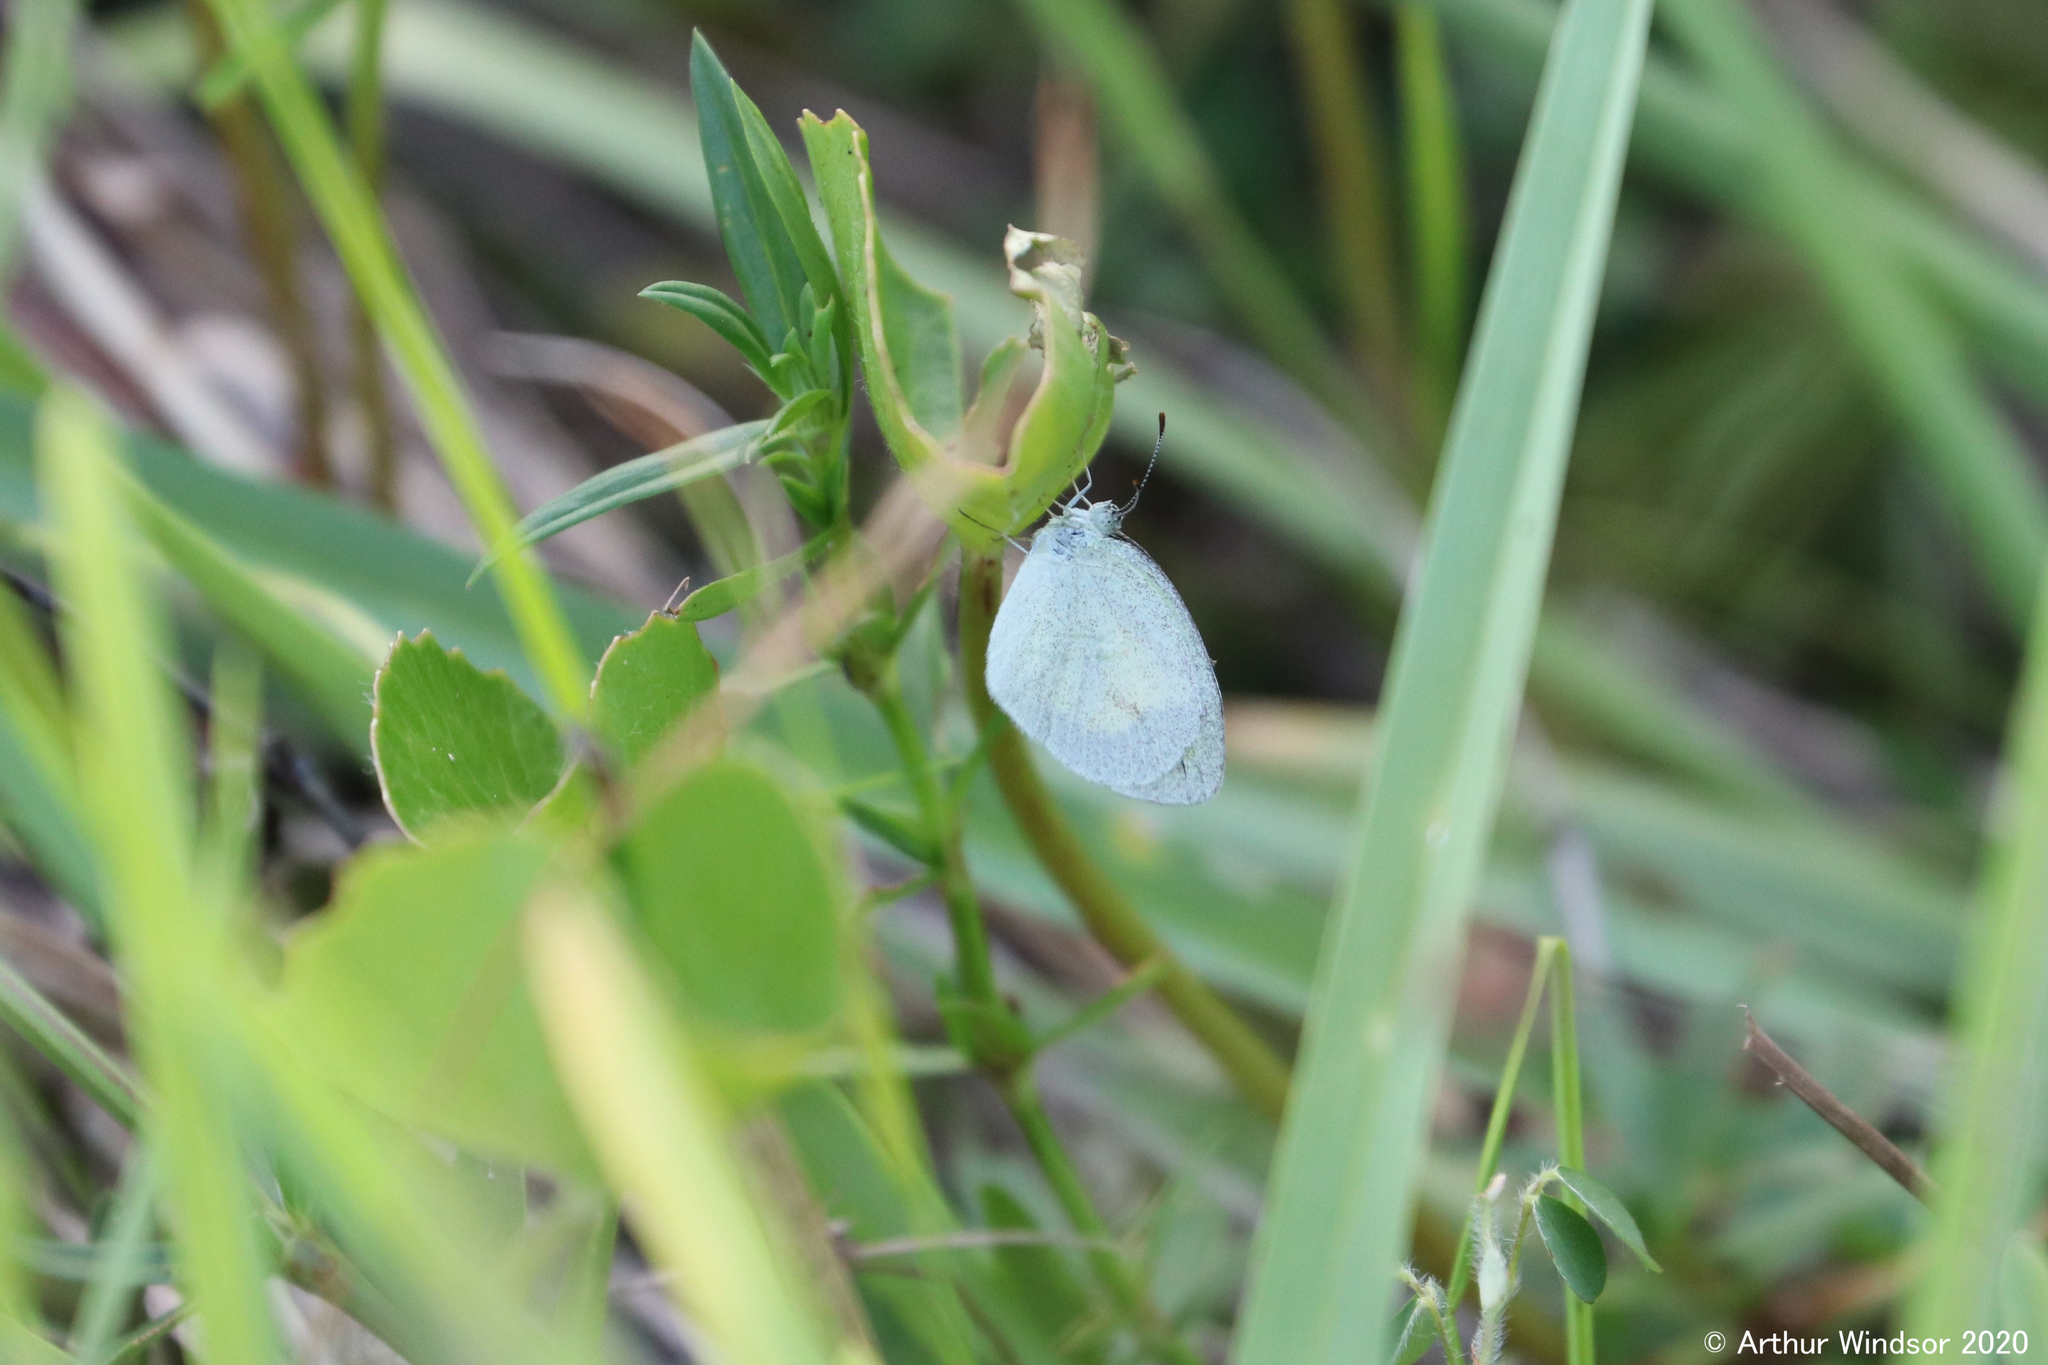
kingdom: Animalia
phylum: Arthropoda
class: Insecta
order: Lepidoptera
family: Pieridae
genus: Eurema
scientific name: Eurema daira
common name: Barred sulphur
